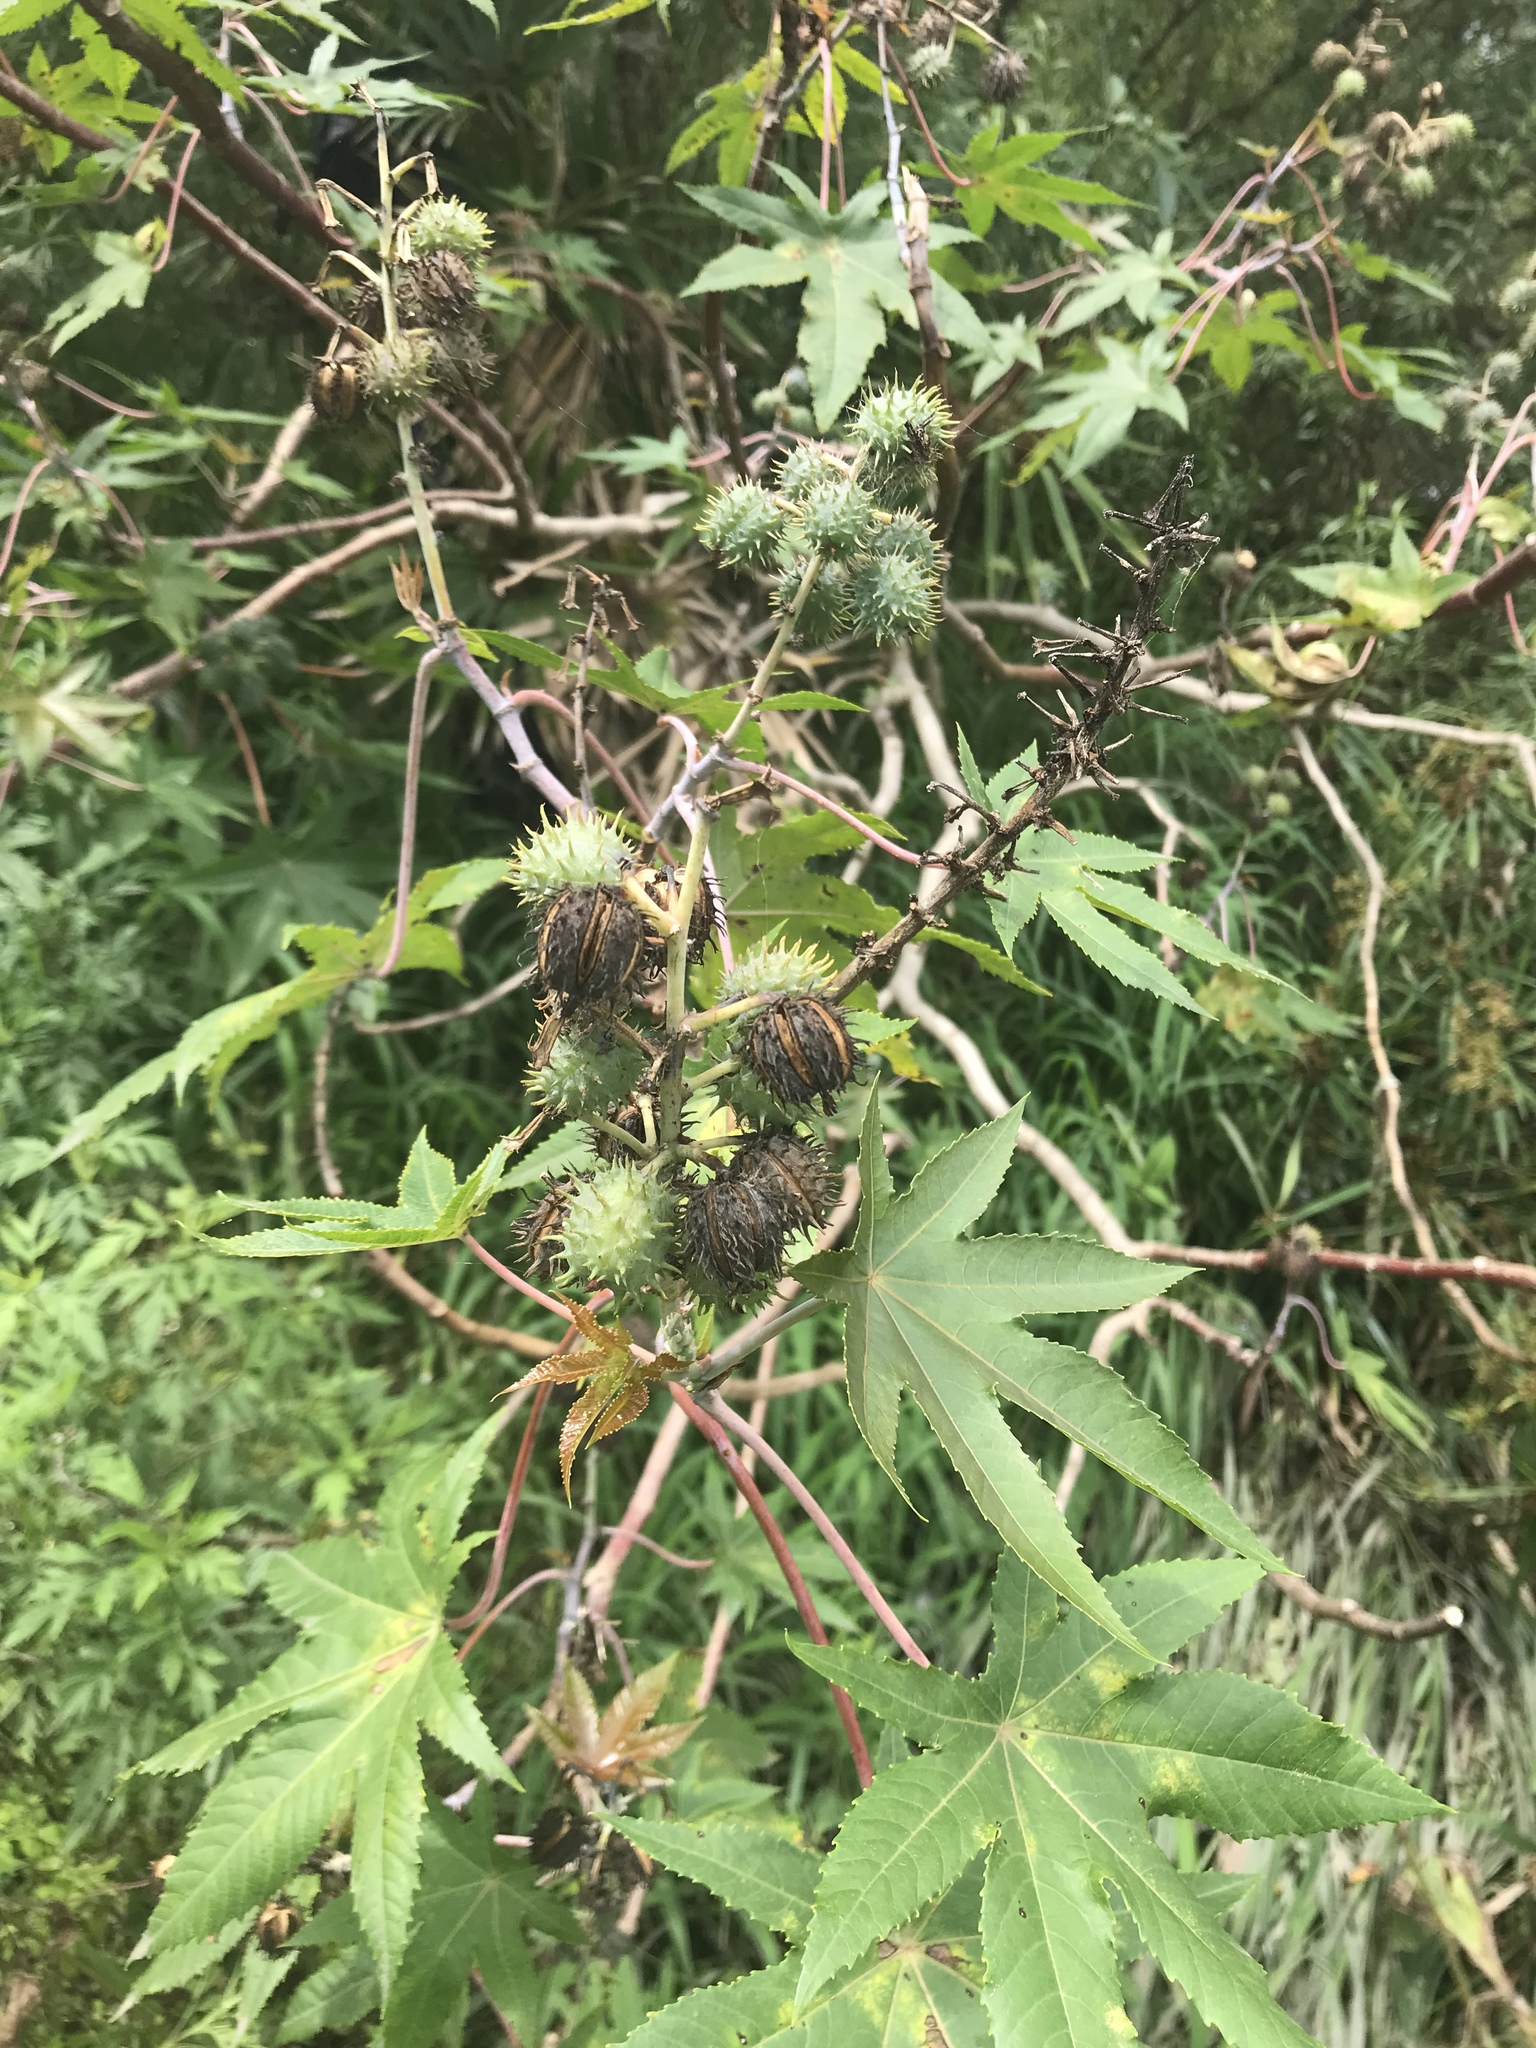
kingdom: Plantae
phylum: Tracheophyta
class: Magnoliopsida
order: Malpighiales
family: Euphorbiaceae
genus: Ricinus
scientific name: Ricinus communis
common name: Castor-oil-plant
